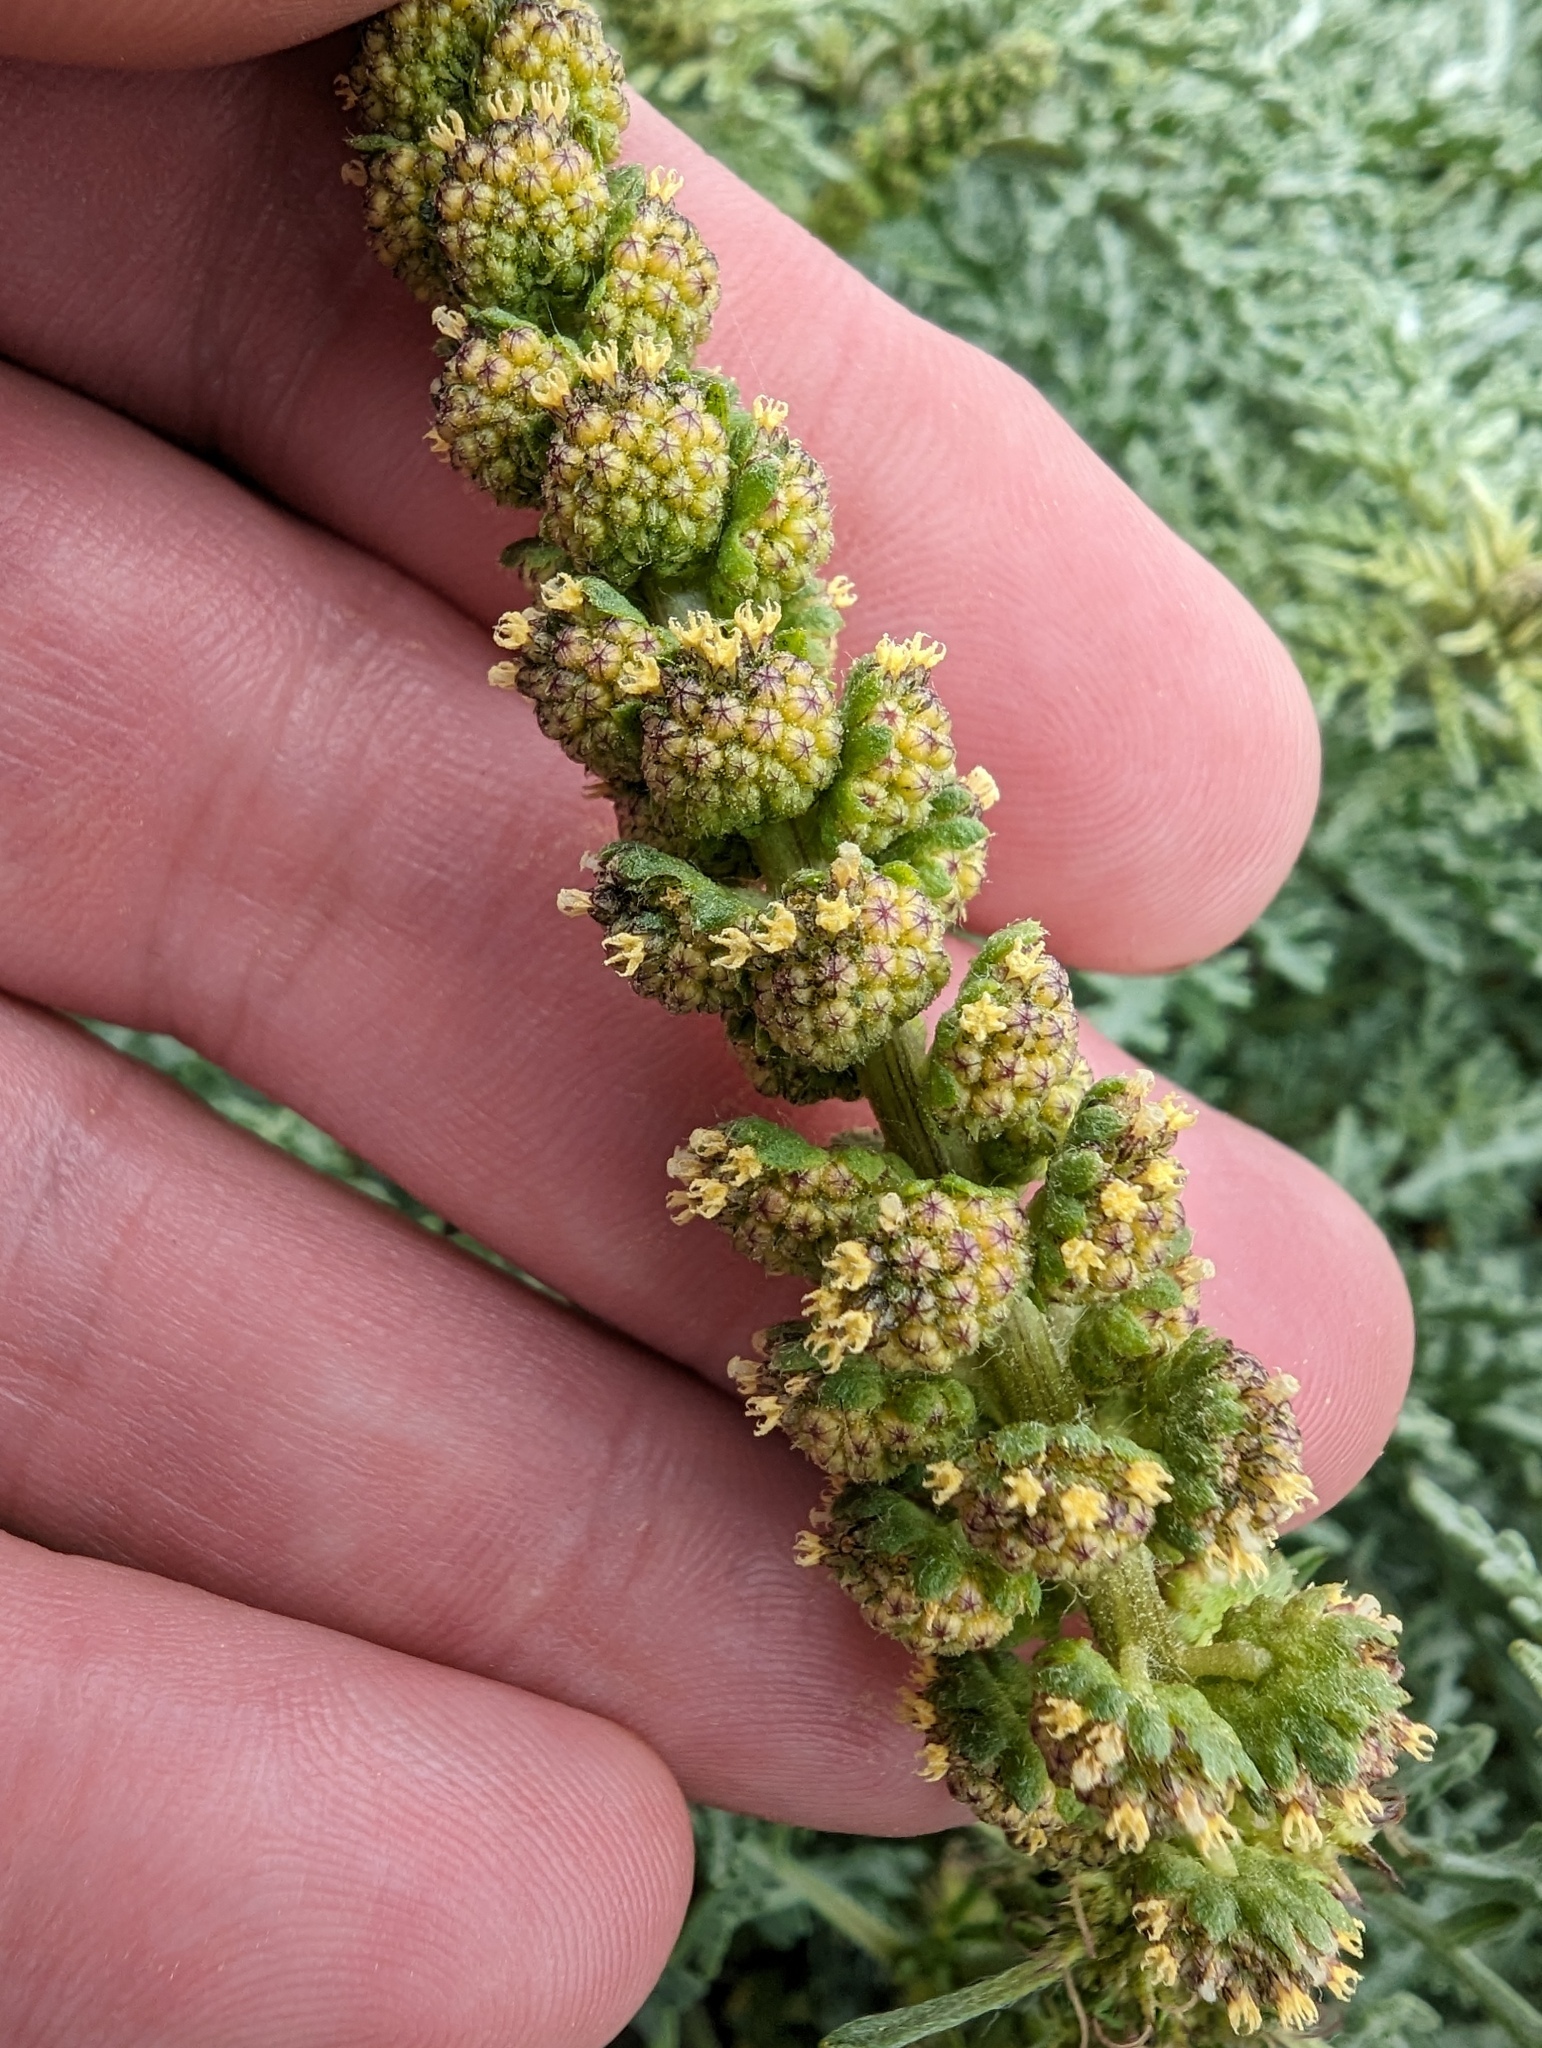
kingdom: Plantae
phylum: Tracheophyta
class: Magnoliopsida
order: Asterales
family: Asteraceae
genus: Ambrosia
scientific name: Ambrosia chamissonis
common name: Beachbur
